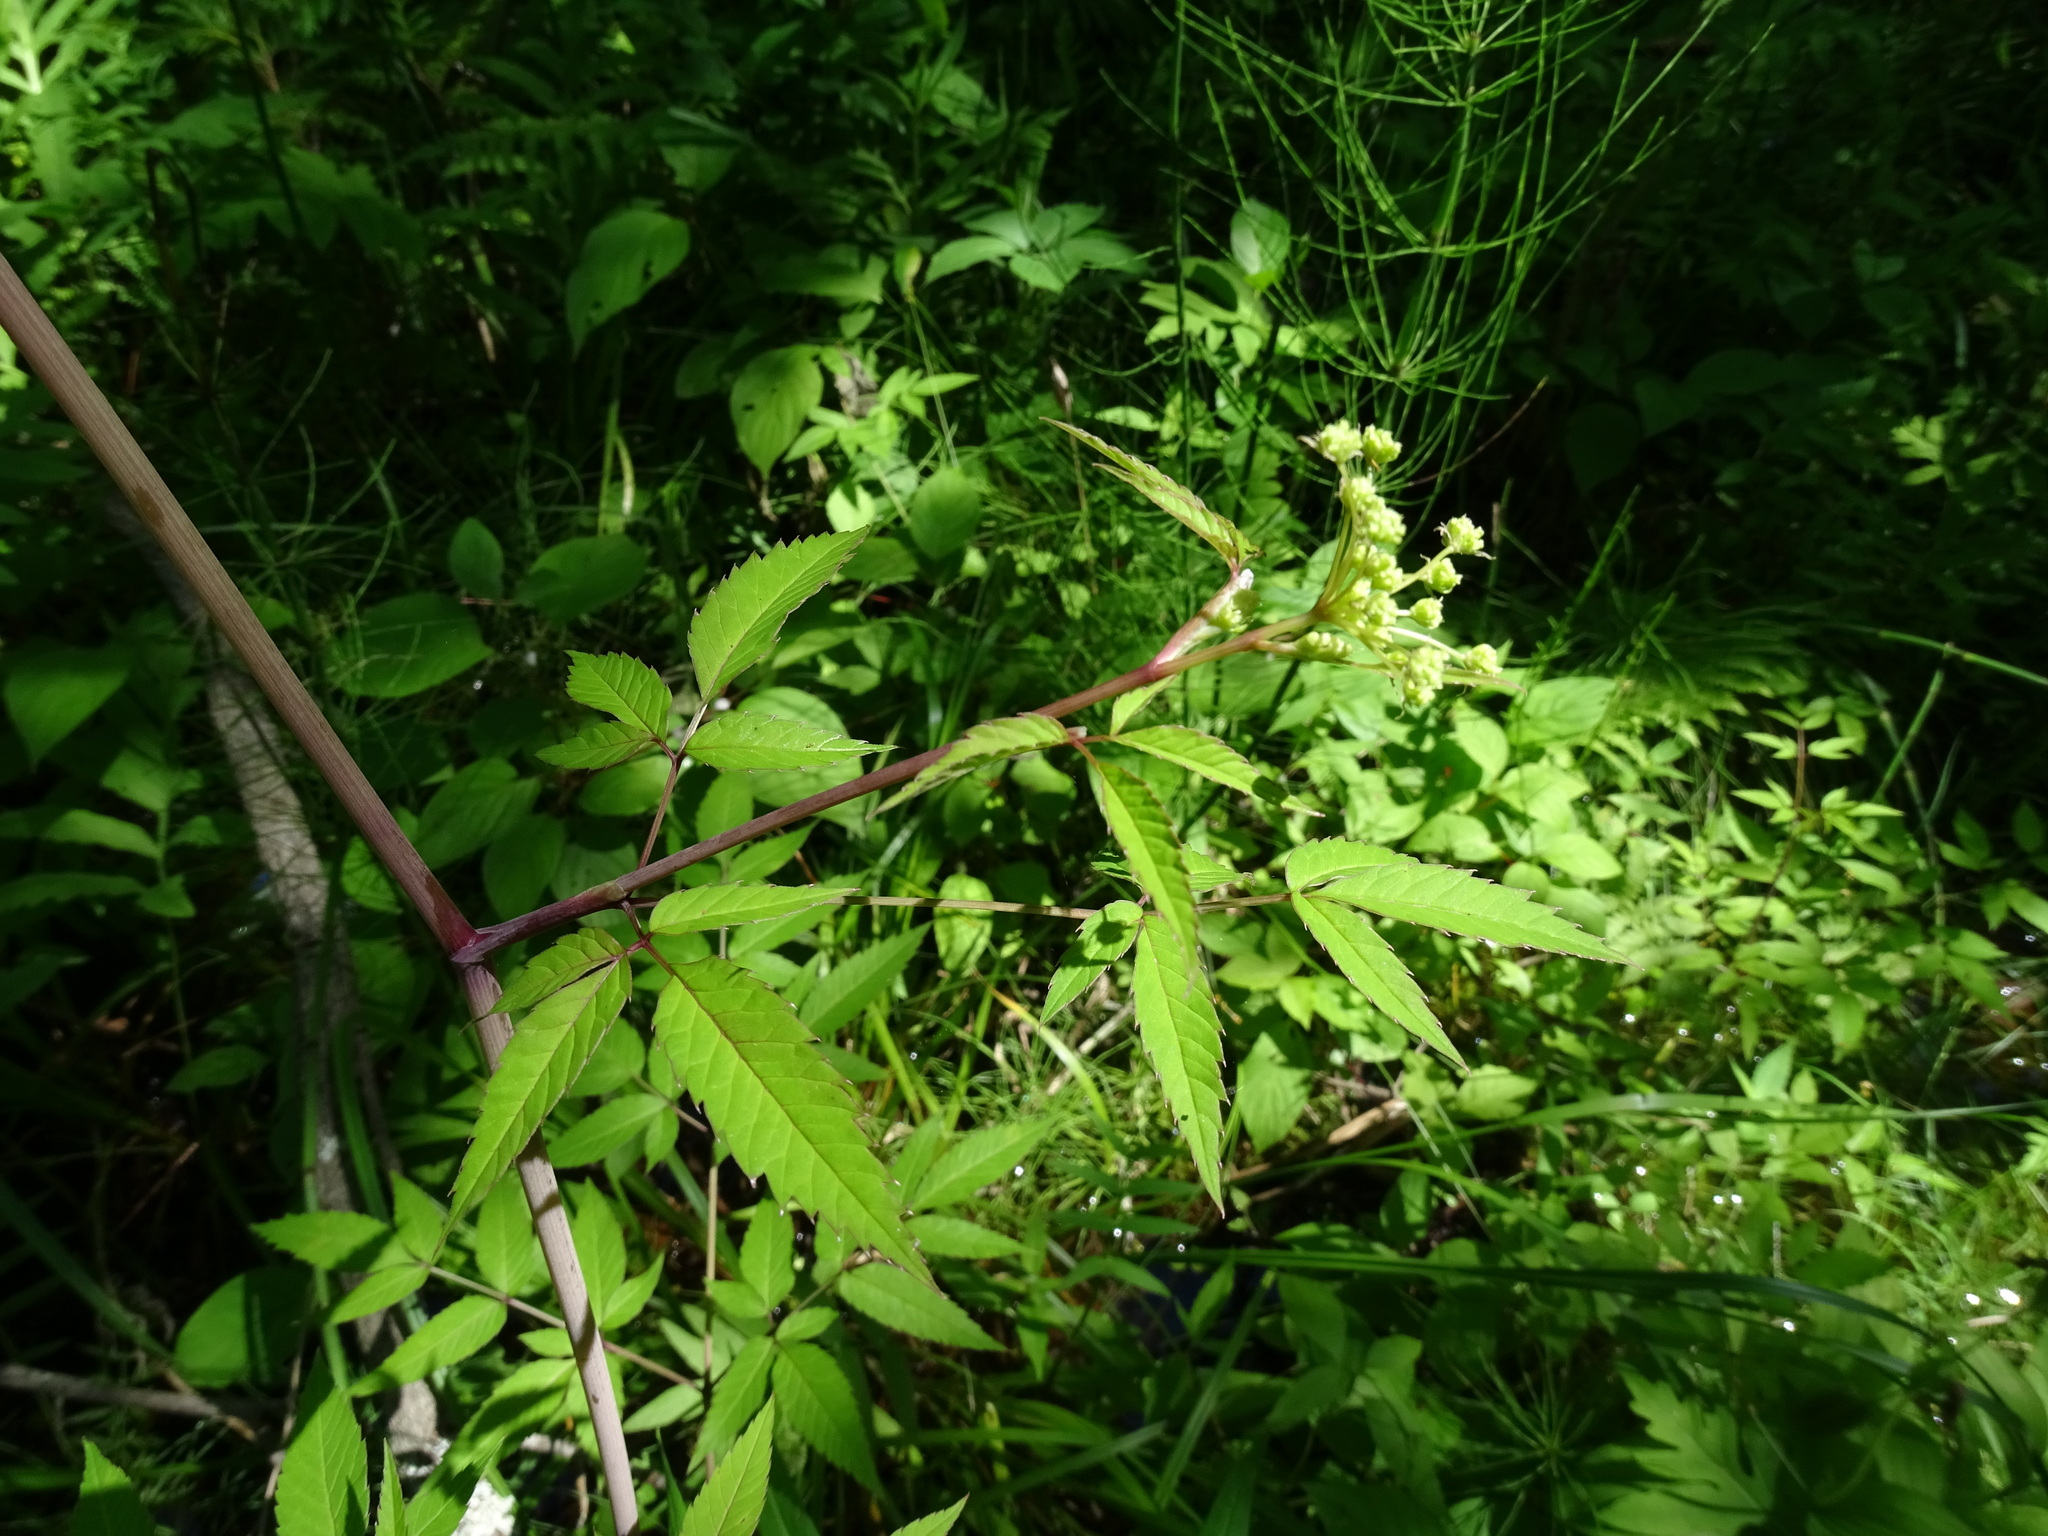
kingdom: Plantae
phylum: Tracheophyta
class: Magnoliopsida
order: Apiales
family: Apiaceae
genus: Cicuta
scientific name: Cicuta maculata
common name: Spotted cowbane
